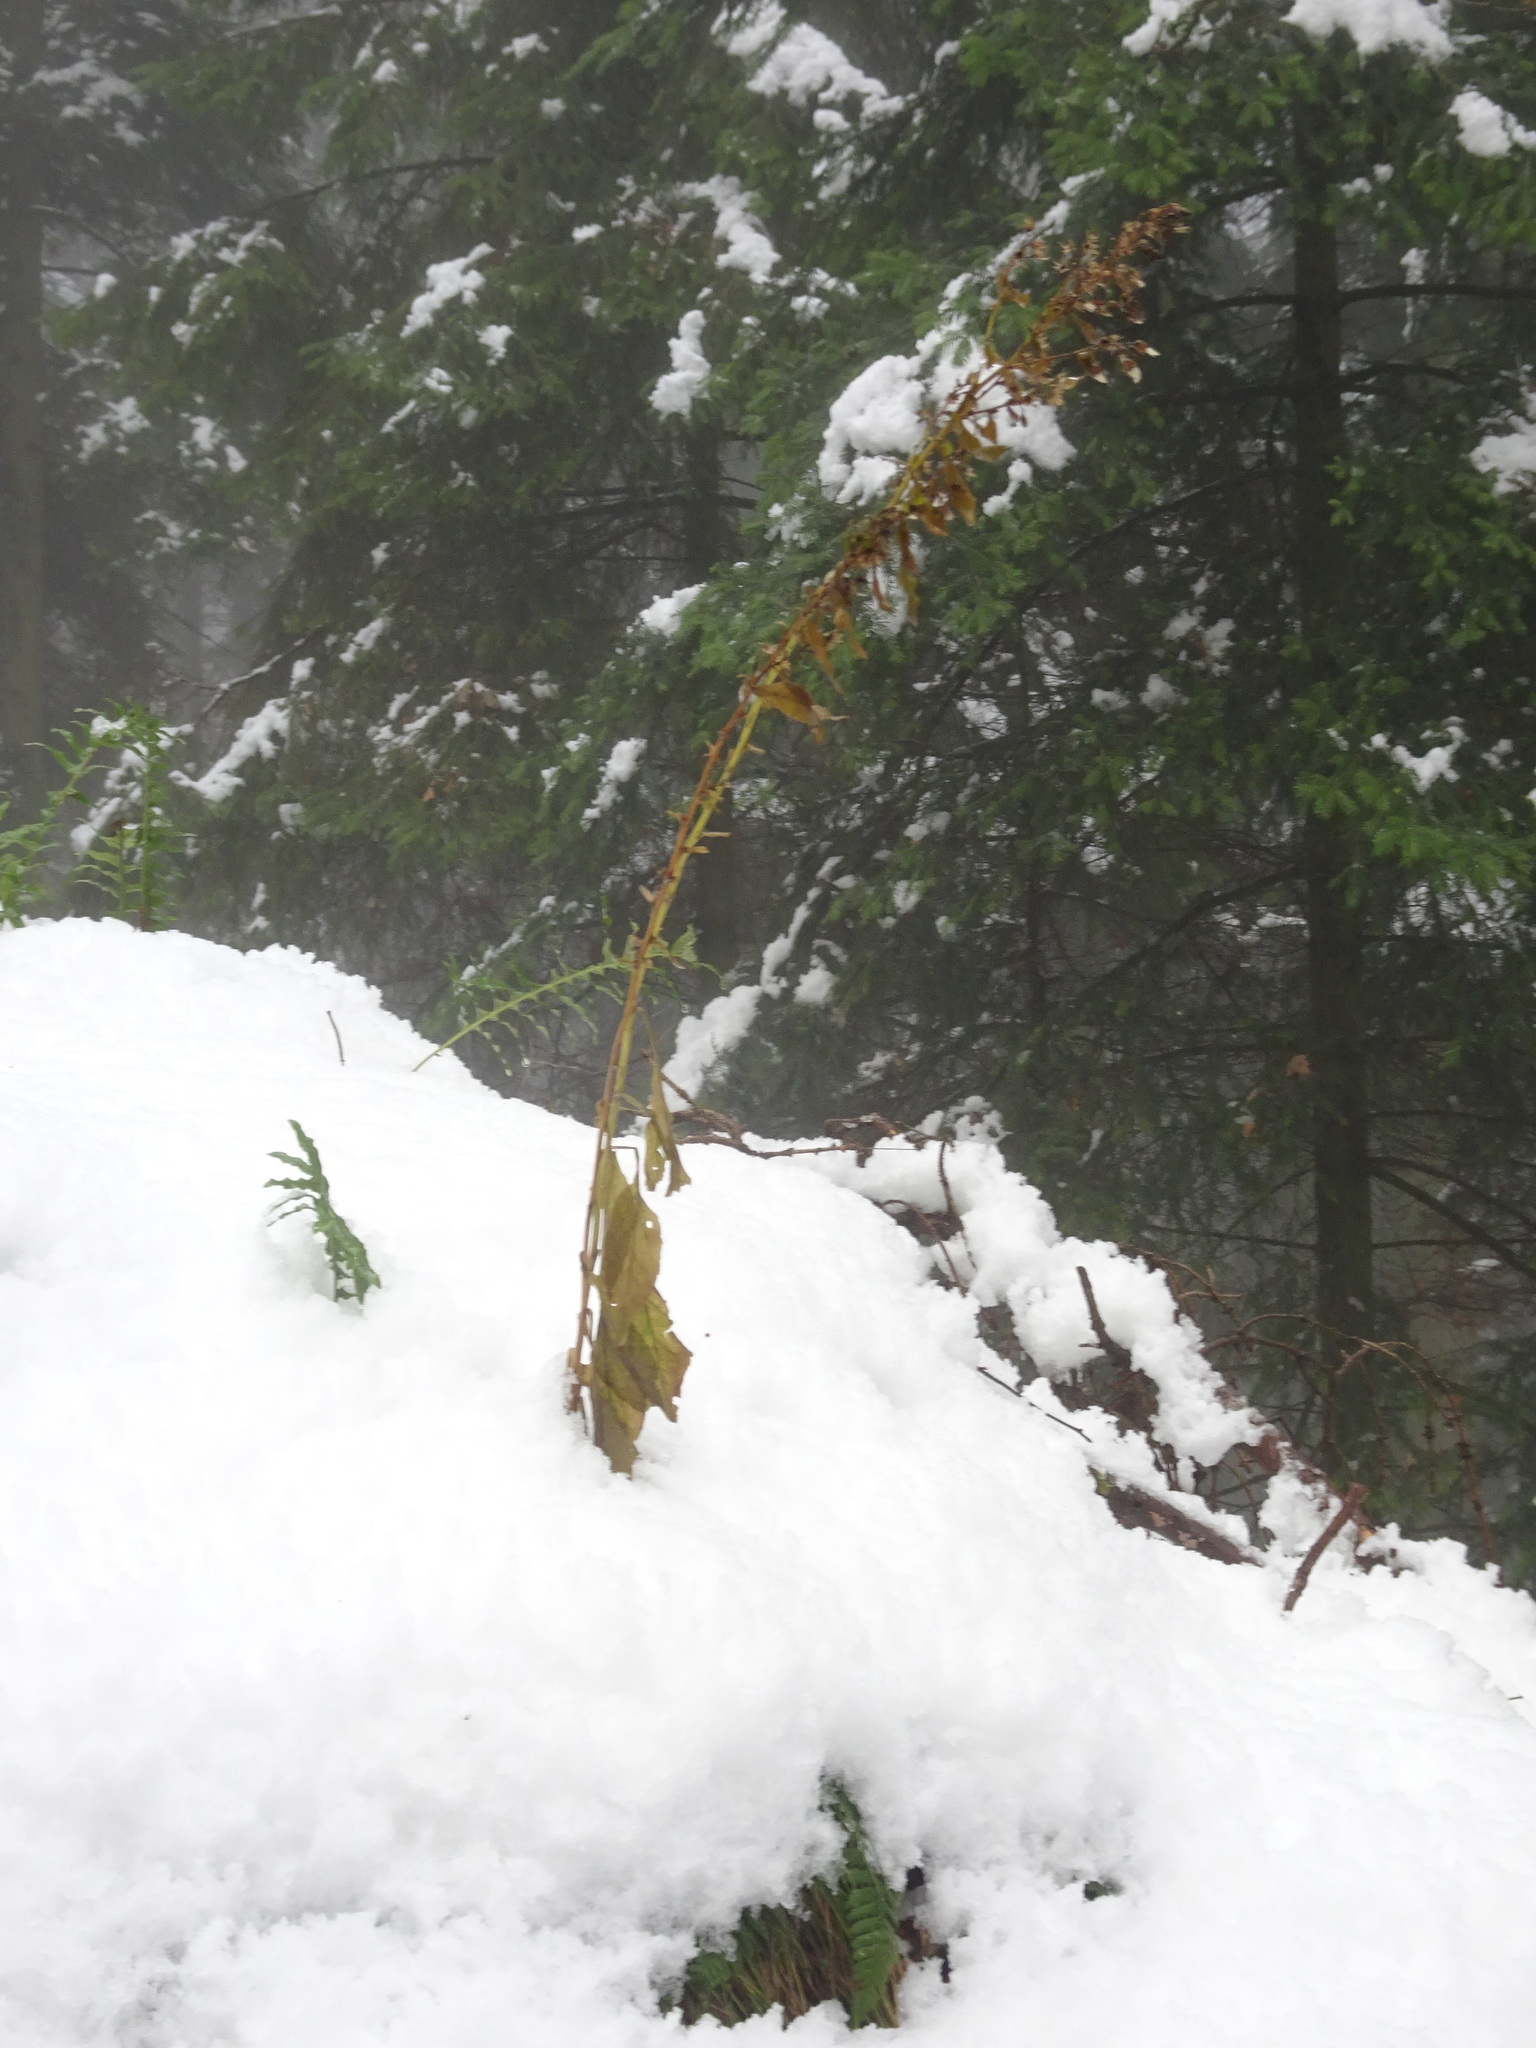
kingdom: Plantae
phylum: Tracheophyta
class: Magnoliopsida
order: Lamiales
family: Plantaginaceae
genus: Digitalis
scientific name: Digitalis purpurea
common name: Foxglove
